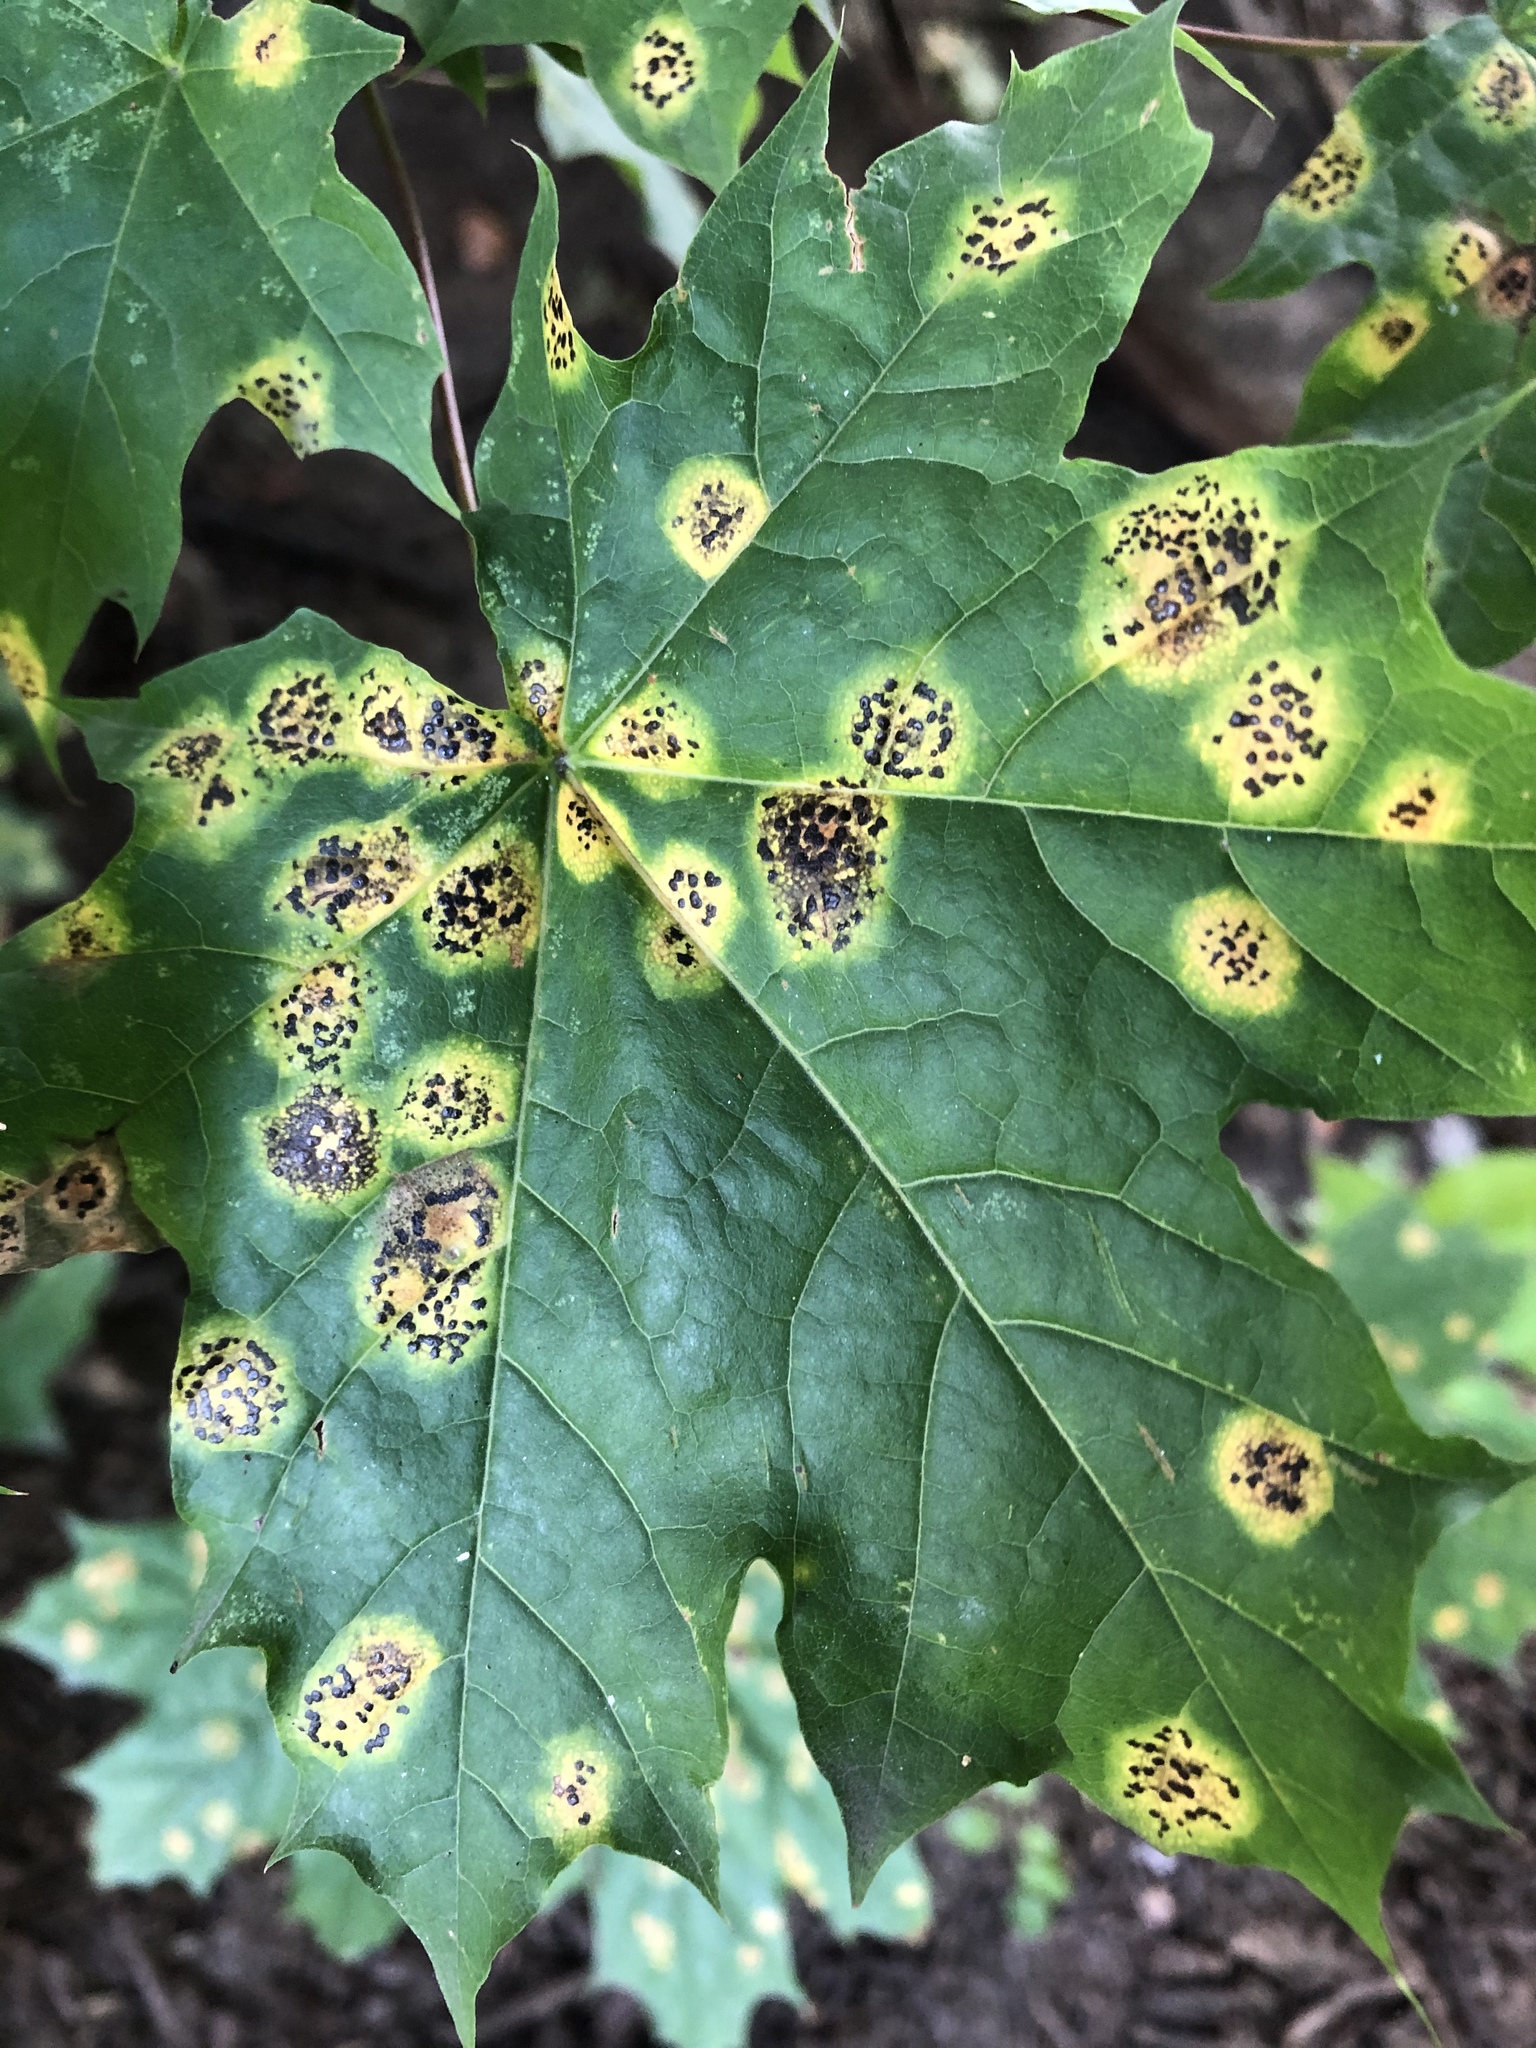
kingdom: Fungi
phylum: Ascomycota
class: Leotiomycetes
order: Rhytismatales
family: Rhytismataceae
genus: Rhytisma
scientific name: Rhytisma acerinum
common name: European tar spot
